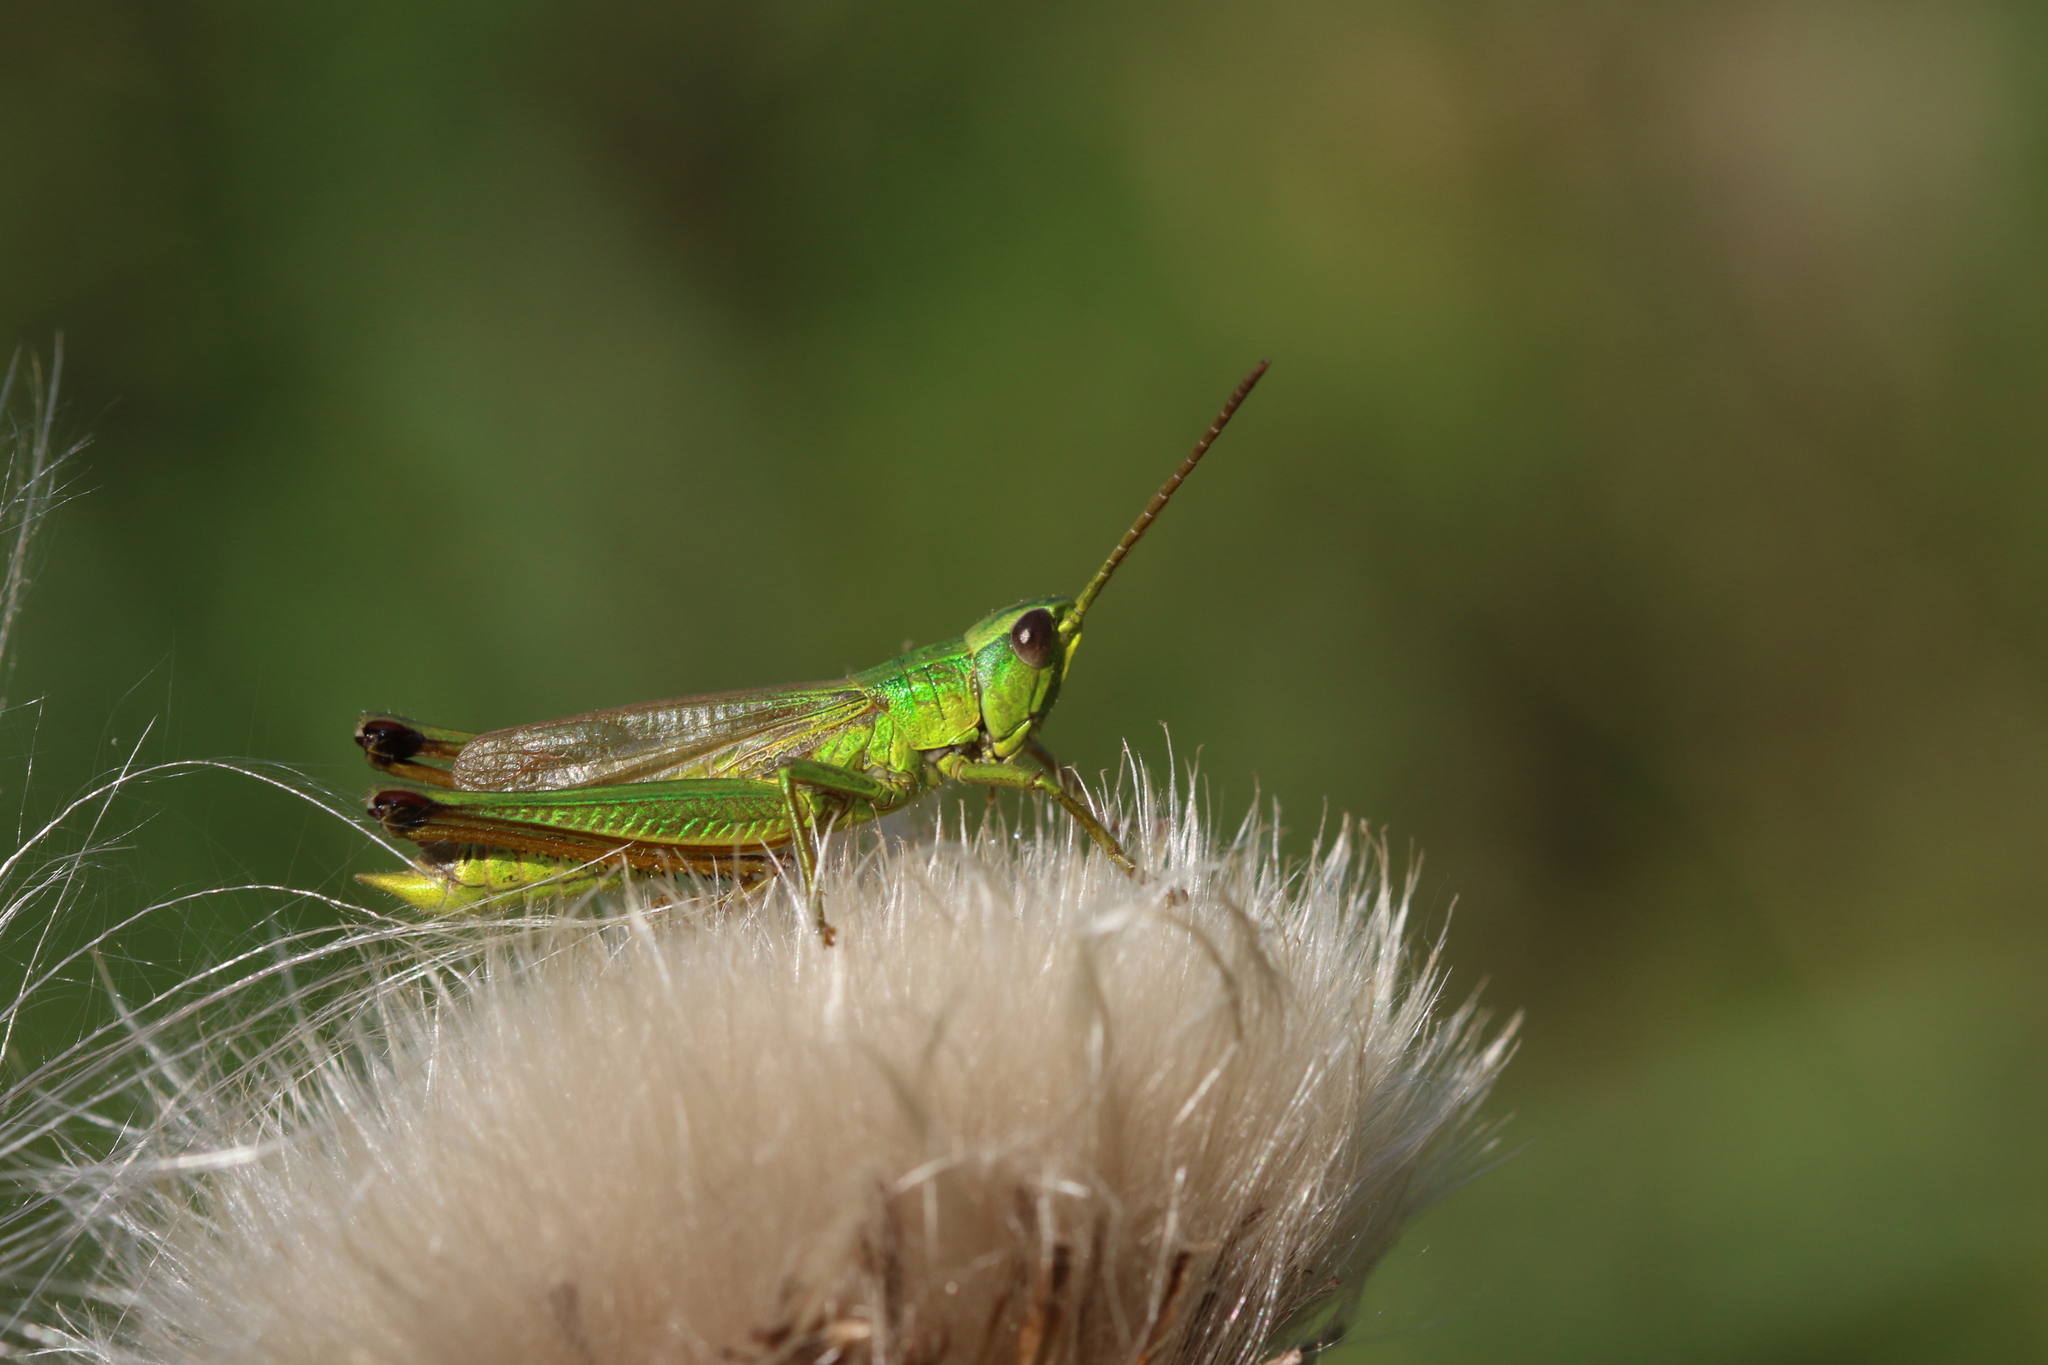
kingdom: Animalia
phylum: Arthropoda
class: Insecta
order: Orthoptera
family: Acrididae
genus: Chrysochraon
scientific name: Chrysochraon dispar
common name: Large gold grasshopper
